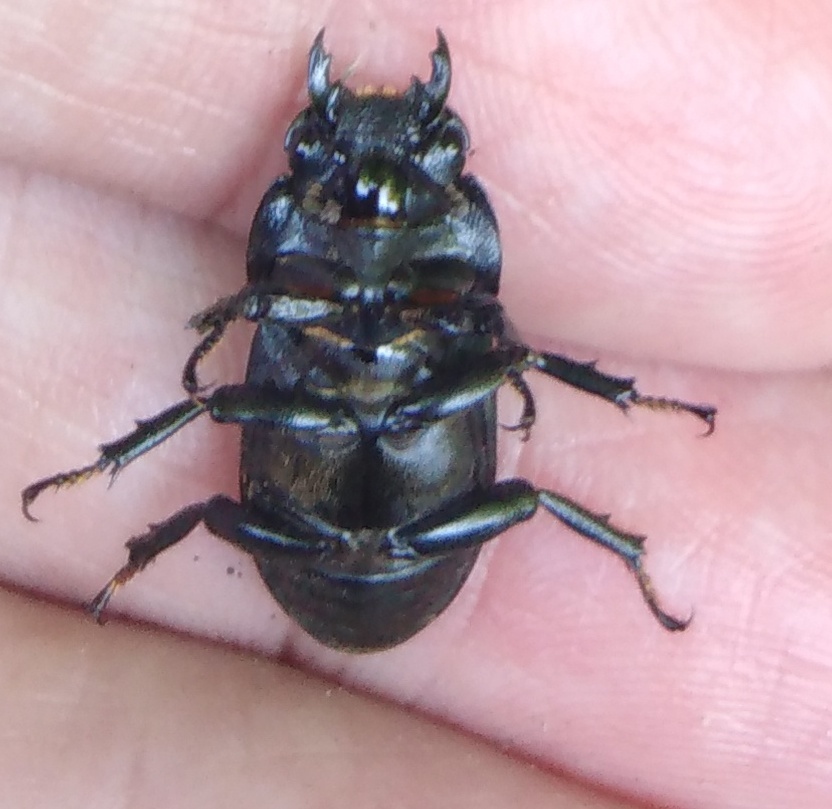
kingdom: Animalia
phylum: Arthropoda
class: Insecta
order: Coleoptera
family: Lucanidae
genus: Dorcus
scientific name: Dorcus parallelipipedus
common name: Lesser stag beetle
